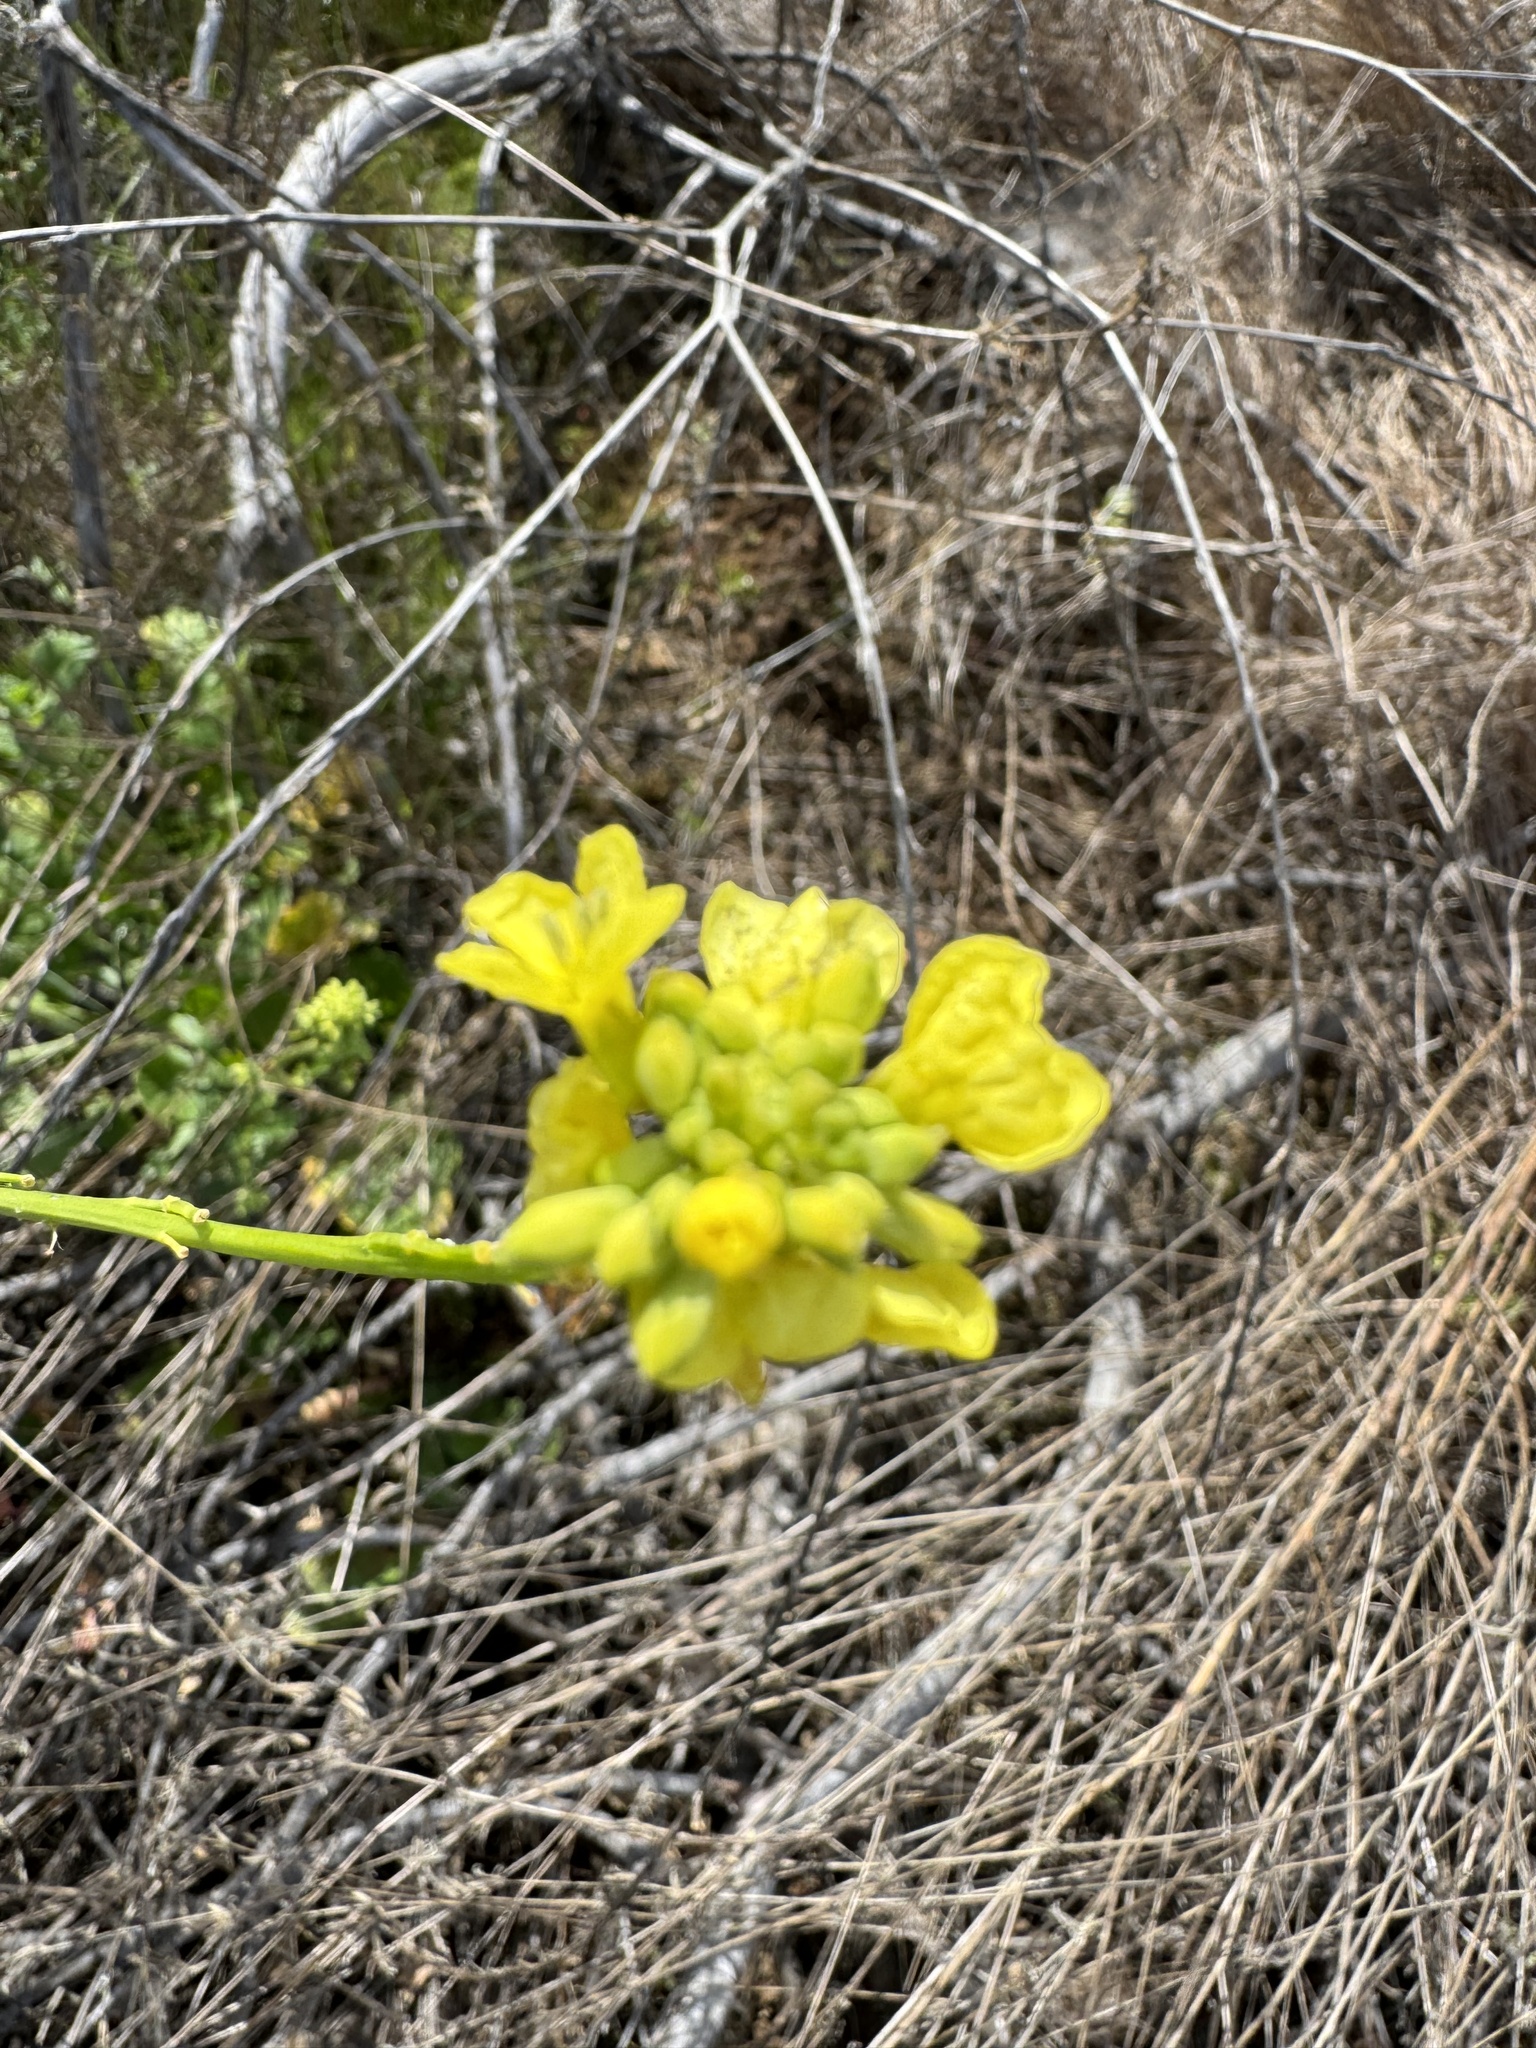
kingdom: Plantae
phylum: Tracheophyta
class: Magnoliopsida
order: Brassicales
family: Brassicaceae
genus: Hirschfeldia
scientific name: Hirschfeldia incana
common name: Hoary mustard
